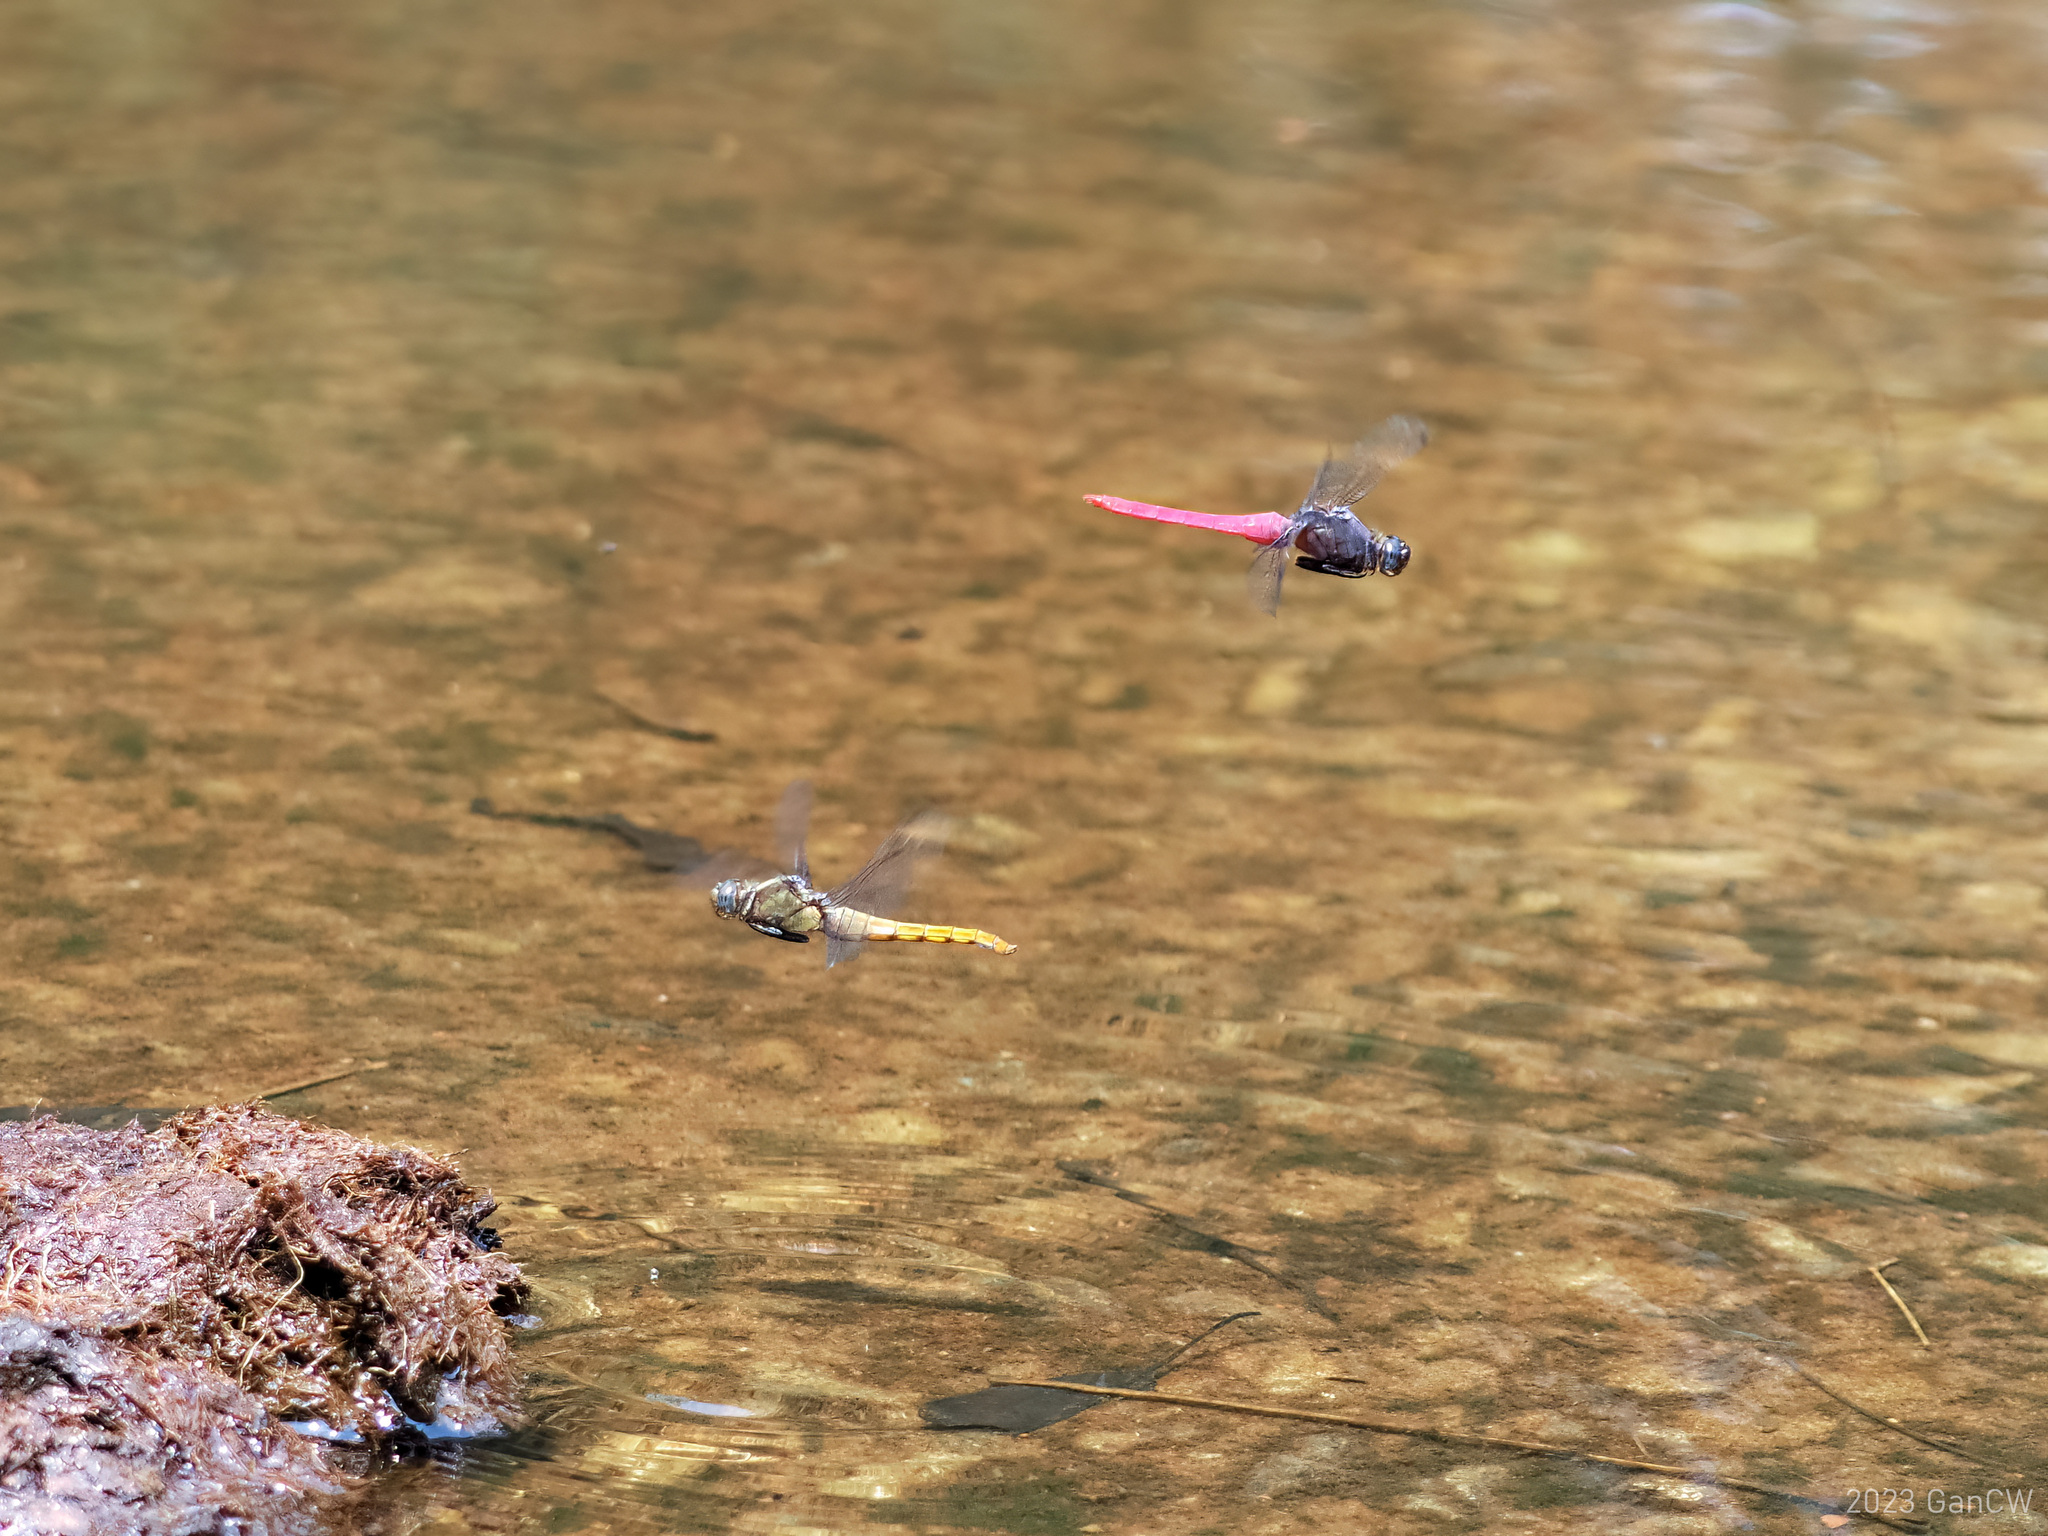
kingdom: Animalia
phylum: Arthropoda
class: Insecta
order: Odonata
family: Libellulidae
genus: Orthetrum
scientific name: Orthetrum pruinosum
